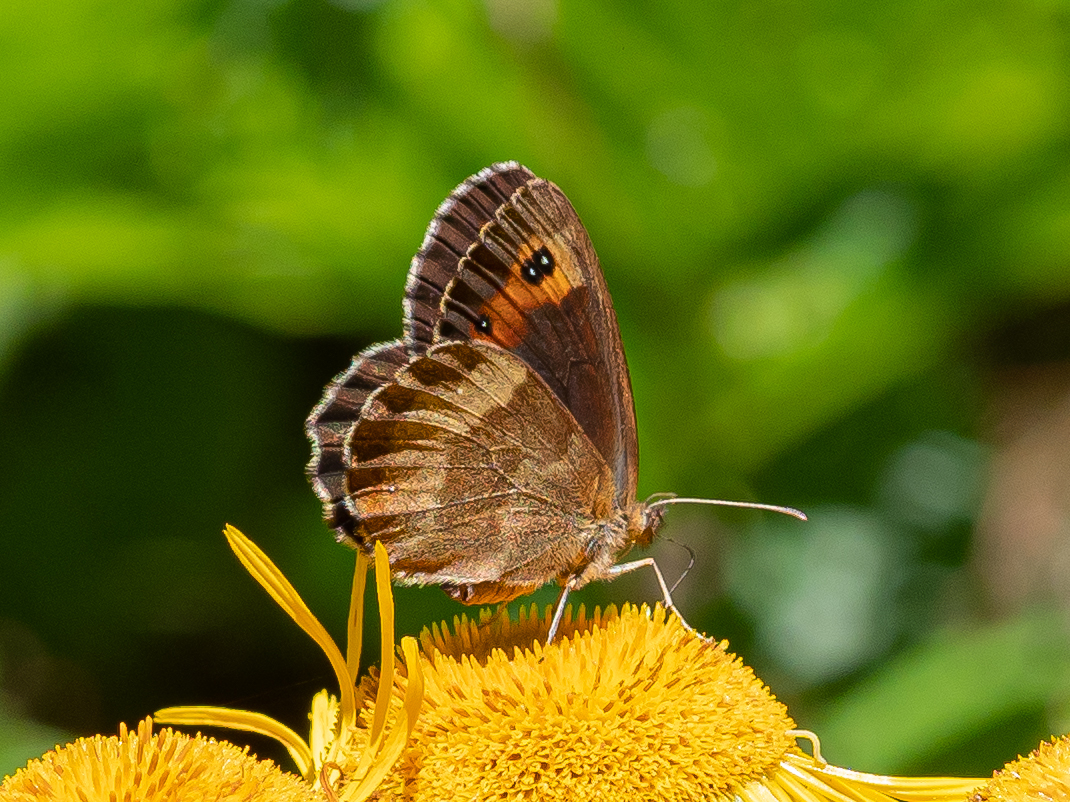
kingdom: Animalia
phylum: Arthropoda
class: Insecta
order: Lepidoptera
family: Nymphalidae
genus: Erebia
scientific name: Erebia aethiops
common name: Scotch argus
